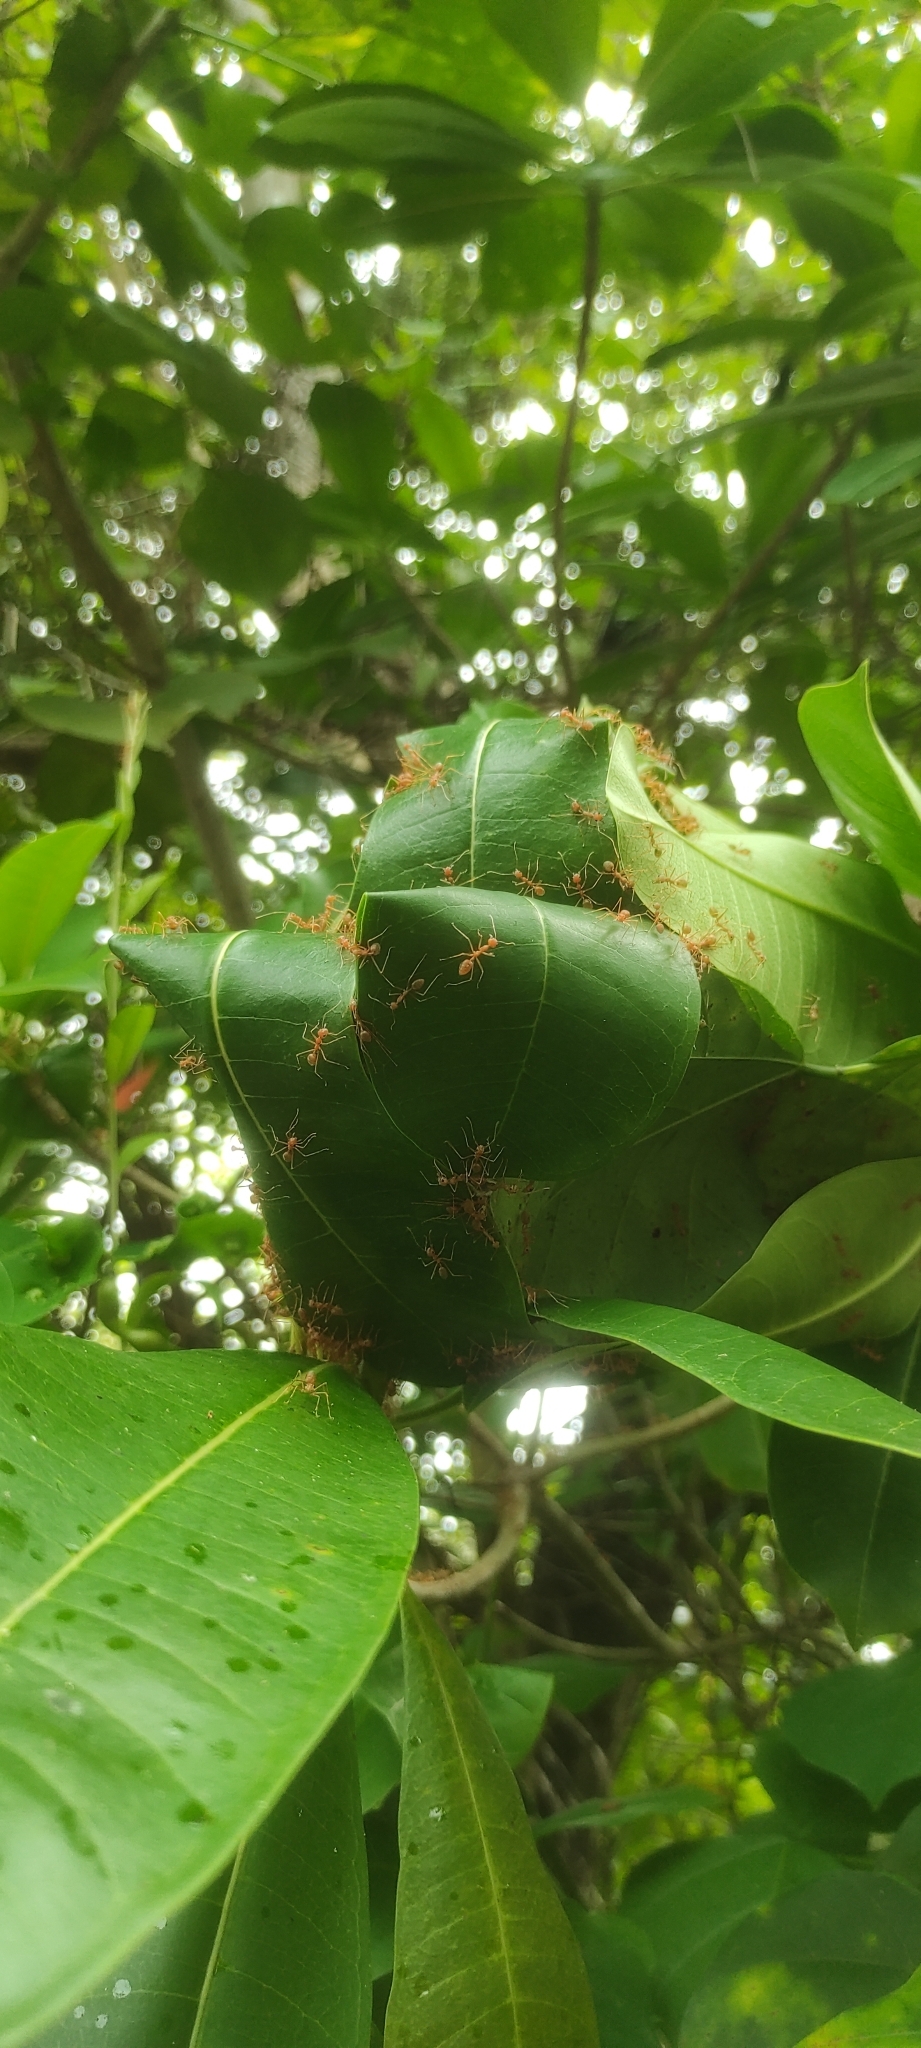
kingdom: Animalia
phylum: Arthropoda
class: Insecta
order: Hymenoptera
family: Formicidae
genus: Oecophylla
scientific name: Oecophylla smaragdina
